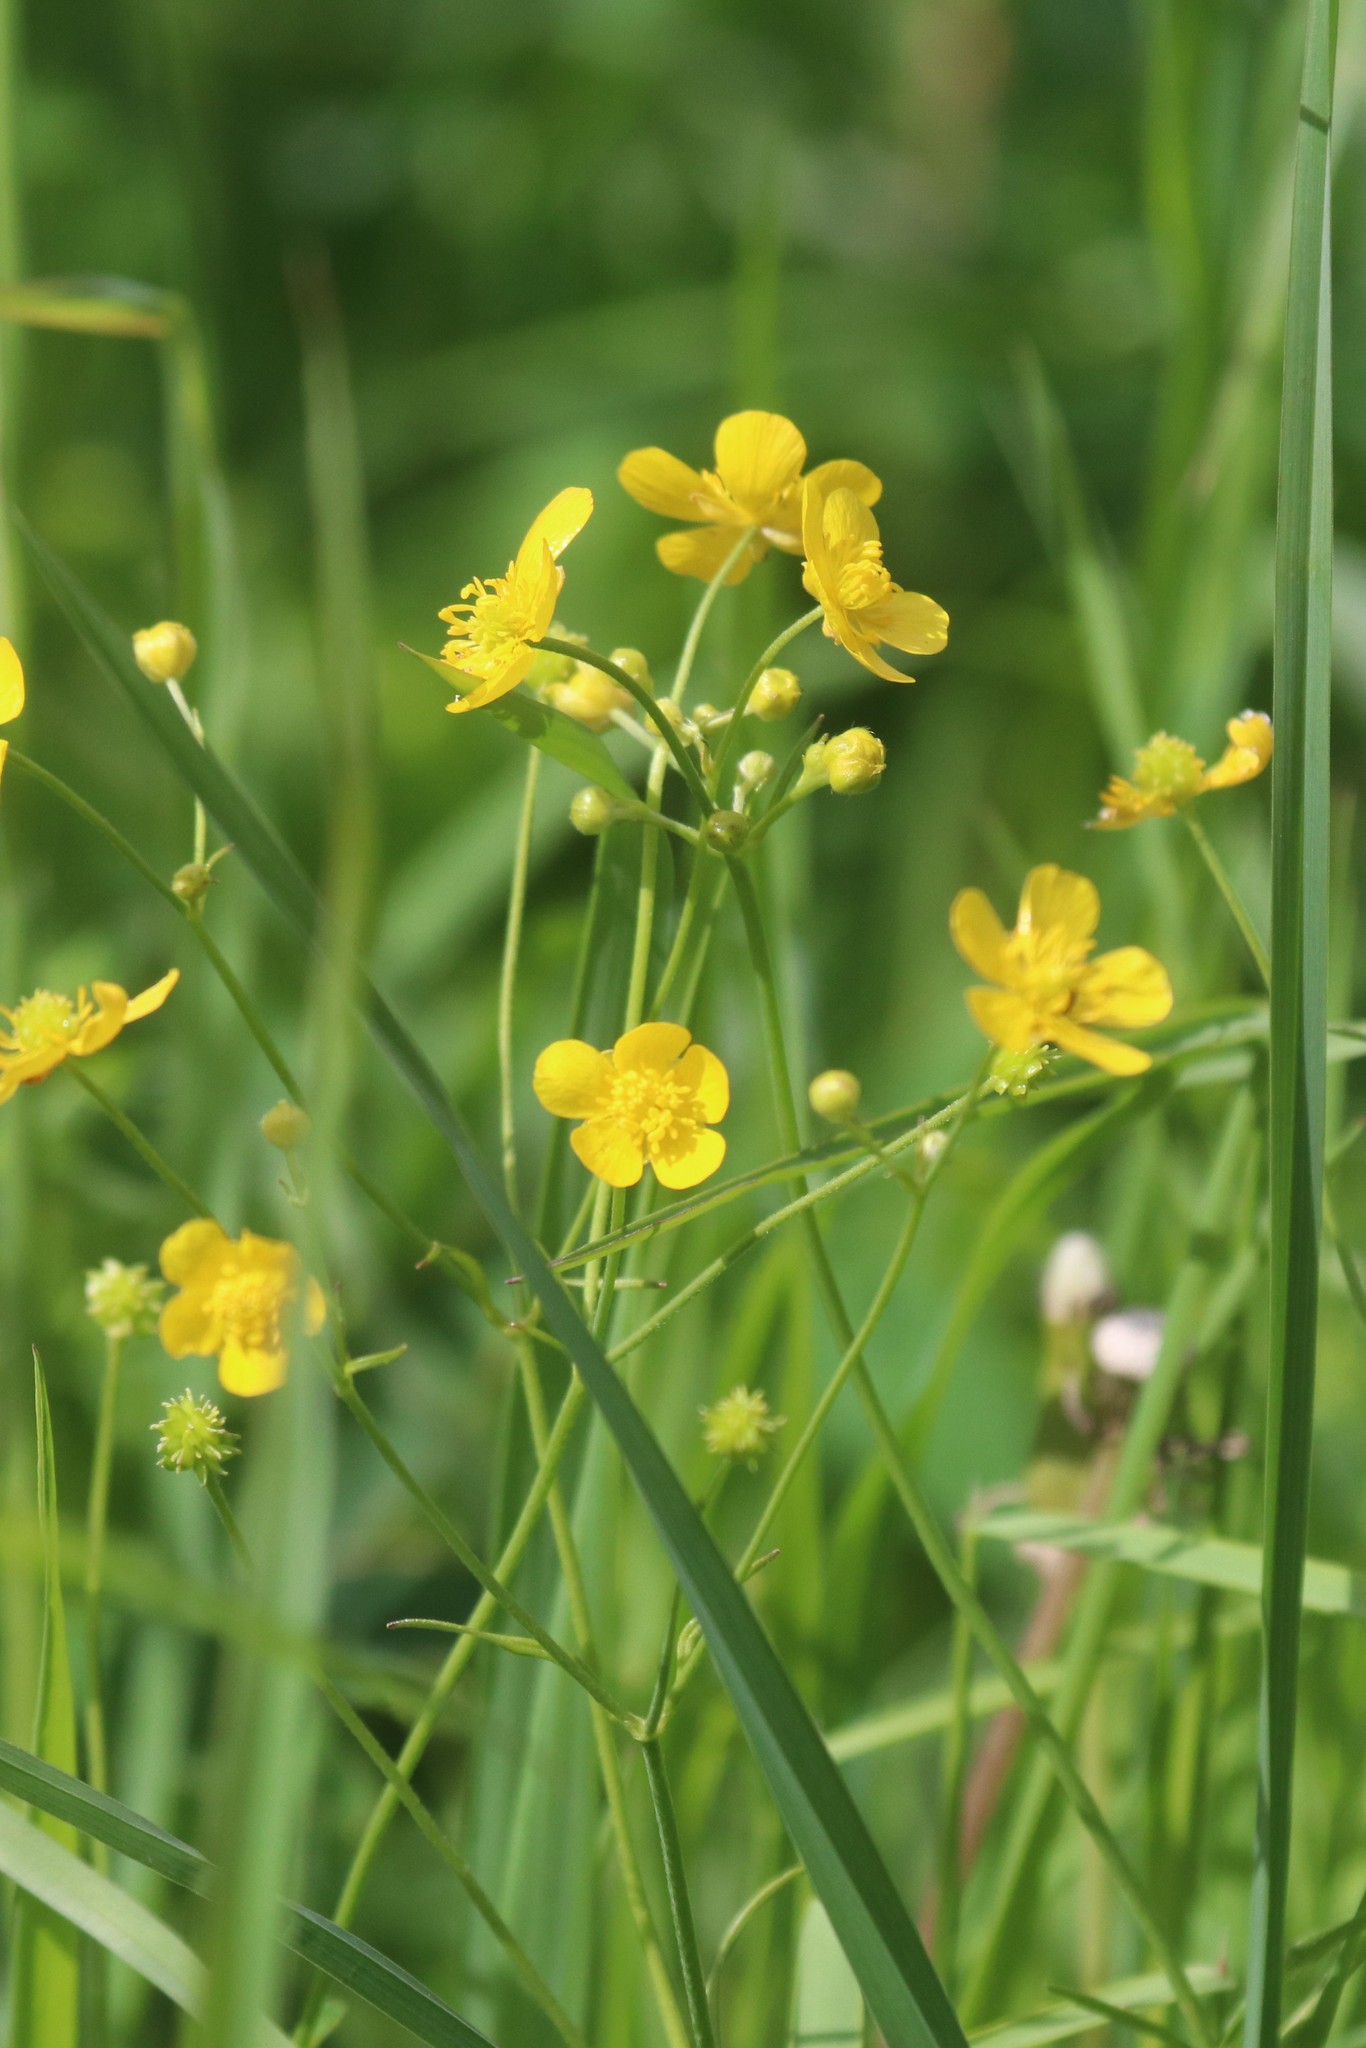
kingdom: Plantae
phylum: Tracheophyta
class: Magnoliopsida
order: Ranunculales
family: Ranunculaceae
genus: Ranunculus
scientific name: Ranunculus acris
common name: Meadow buttercup
